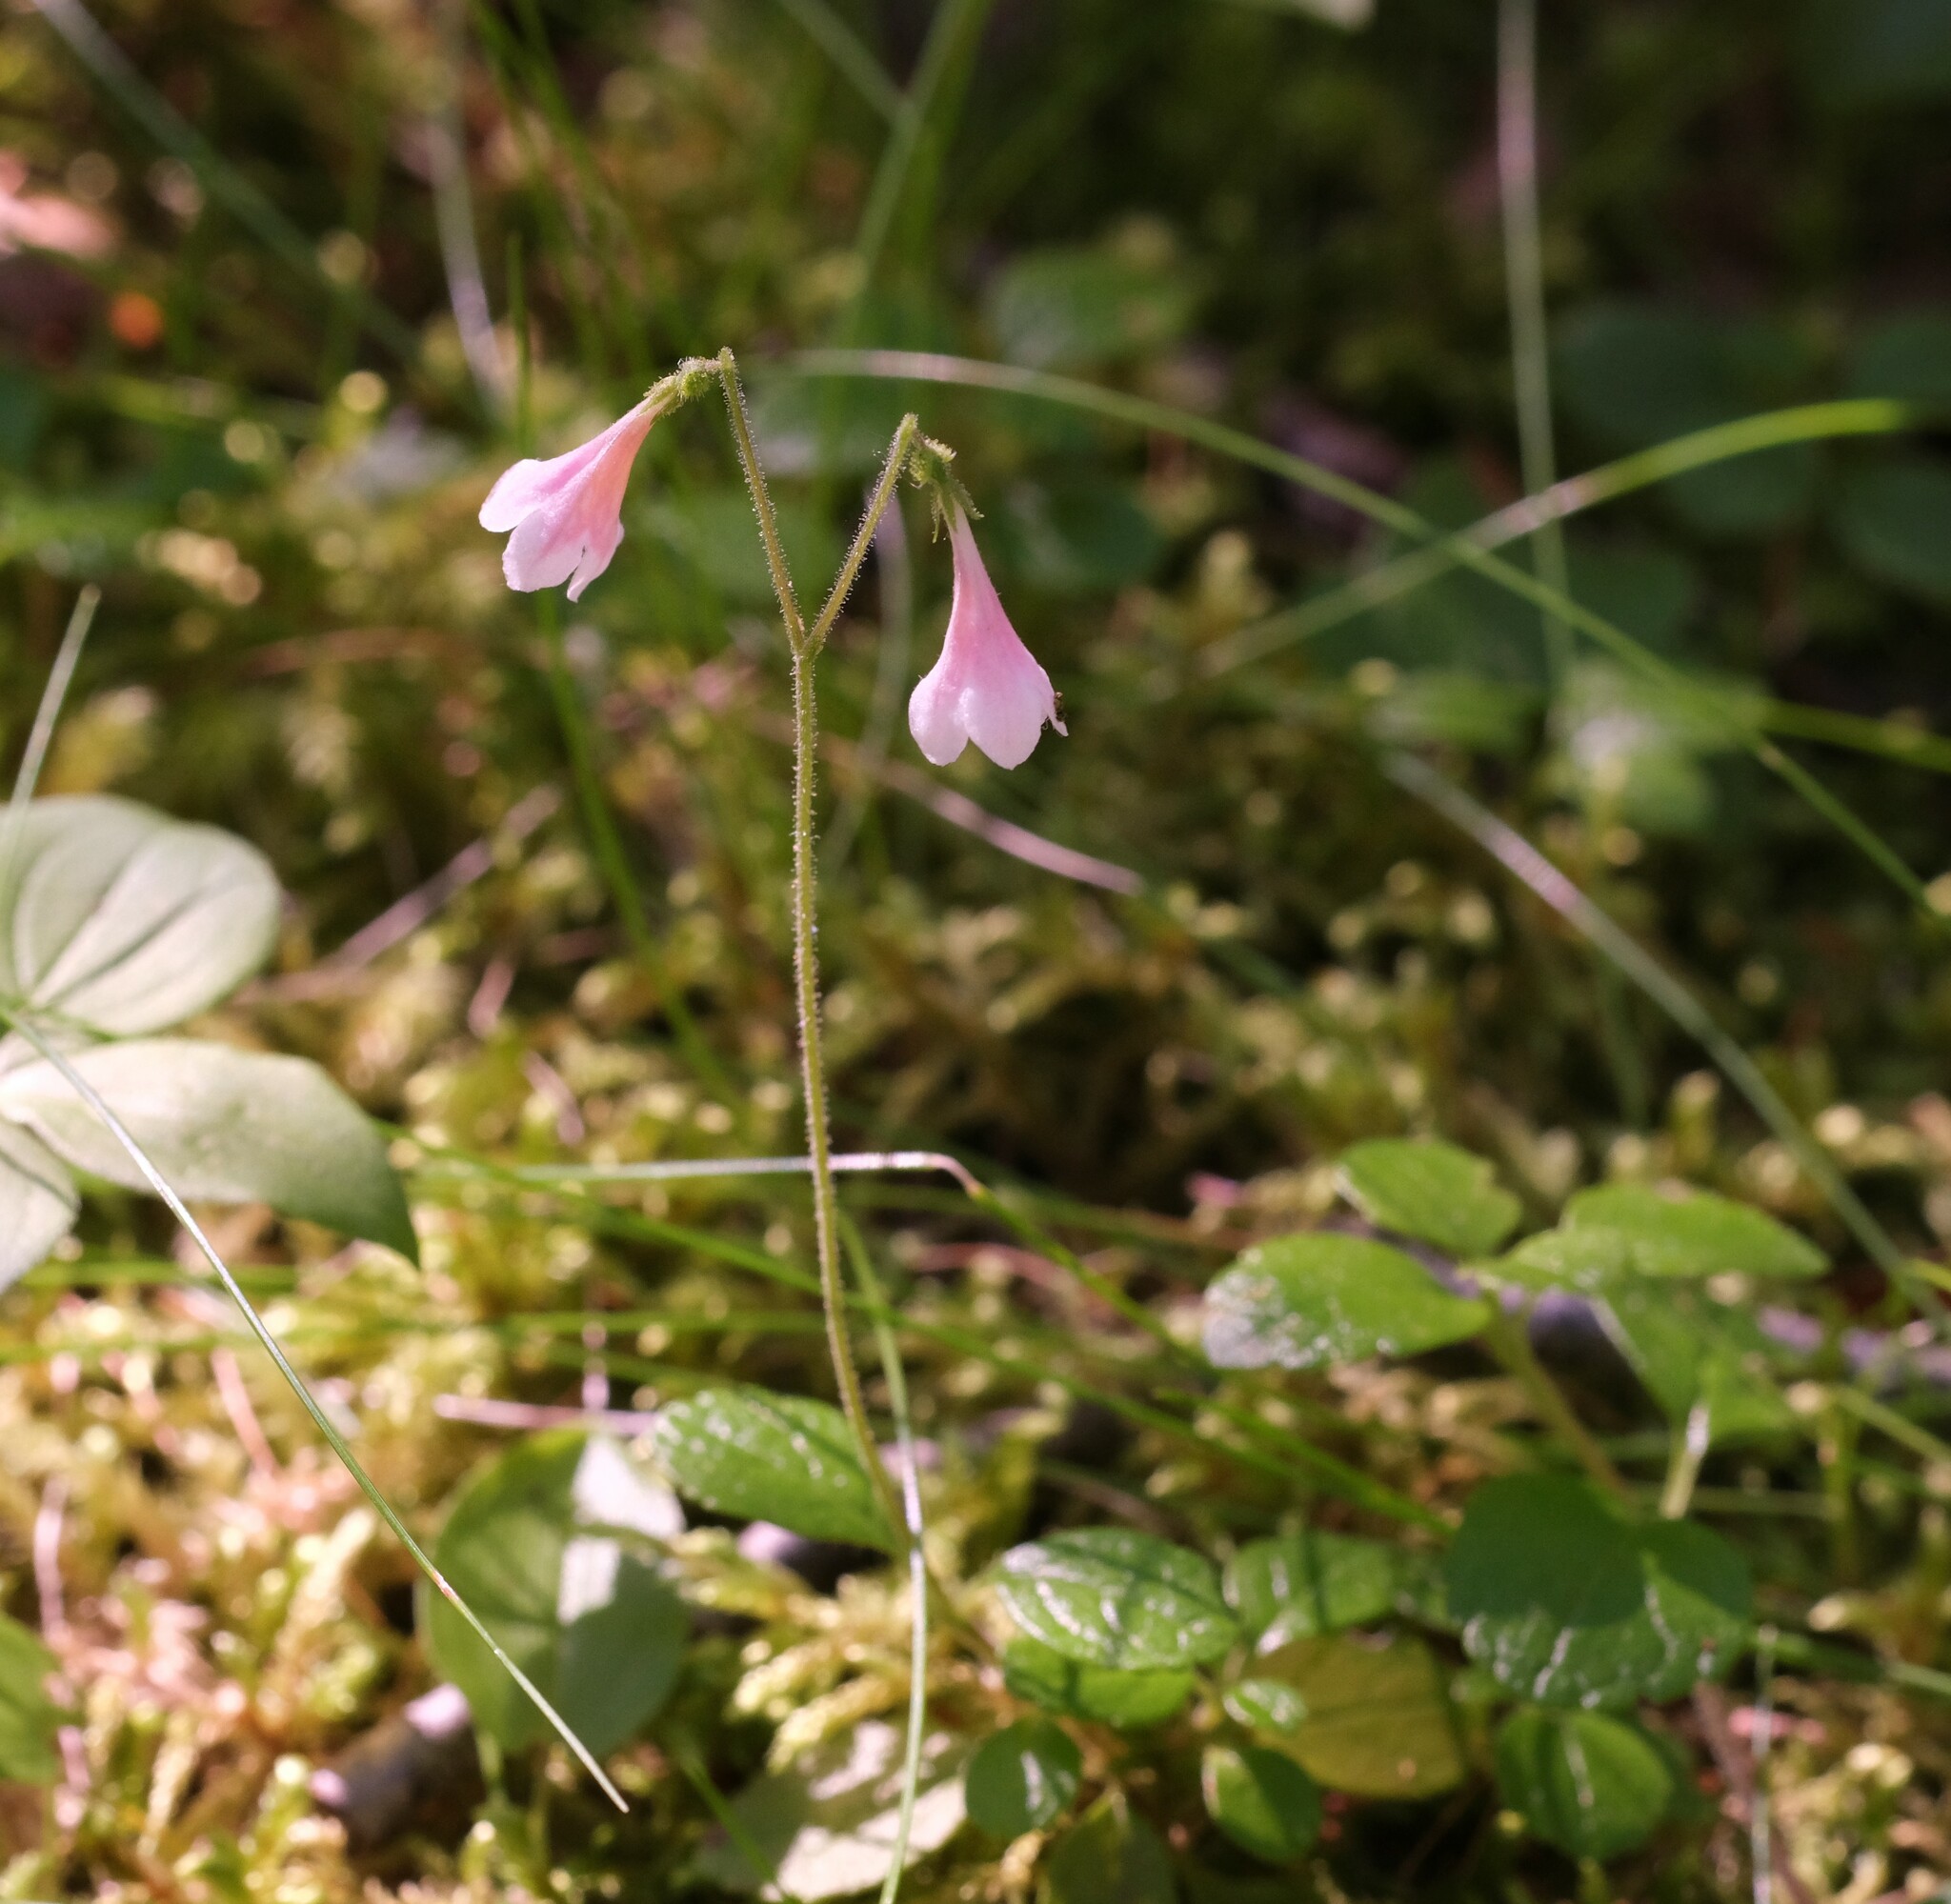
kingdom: Plantae
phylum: Tracheophyta
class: Magnoliopsida
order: Dipsacales
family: Caprifoliaceae
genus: Linnaea
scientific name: Linnaea borealis
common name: Twinflower
